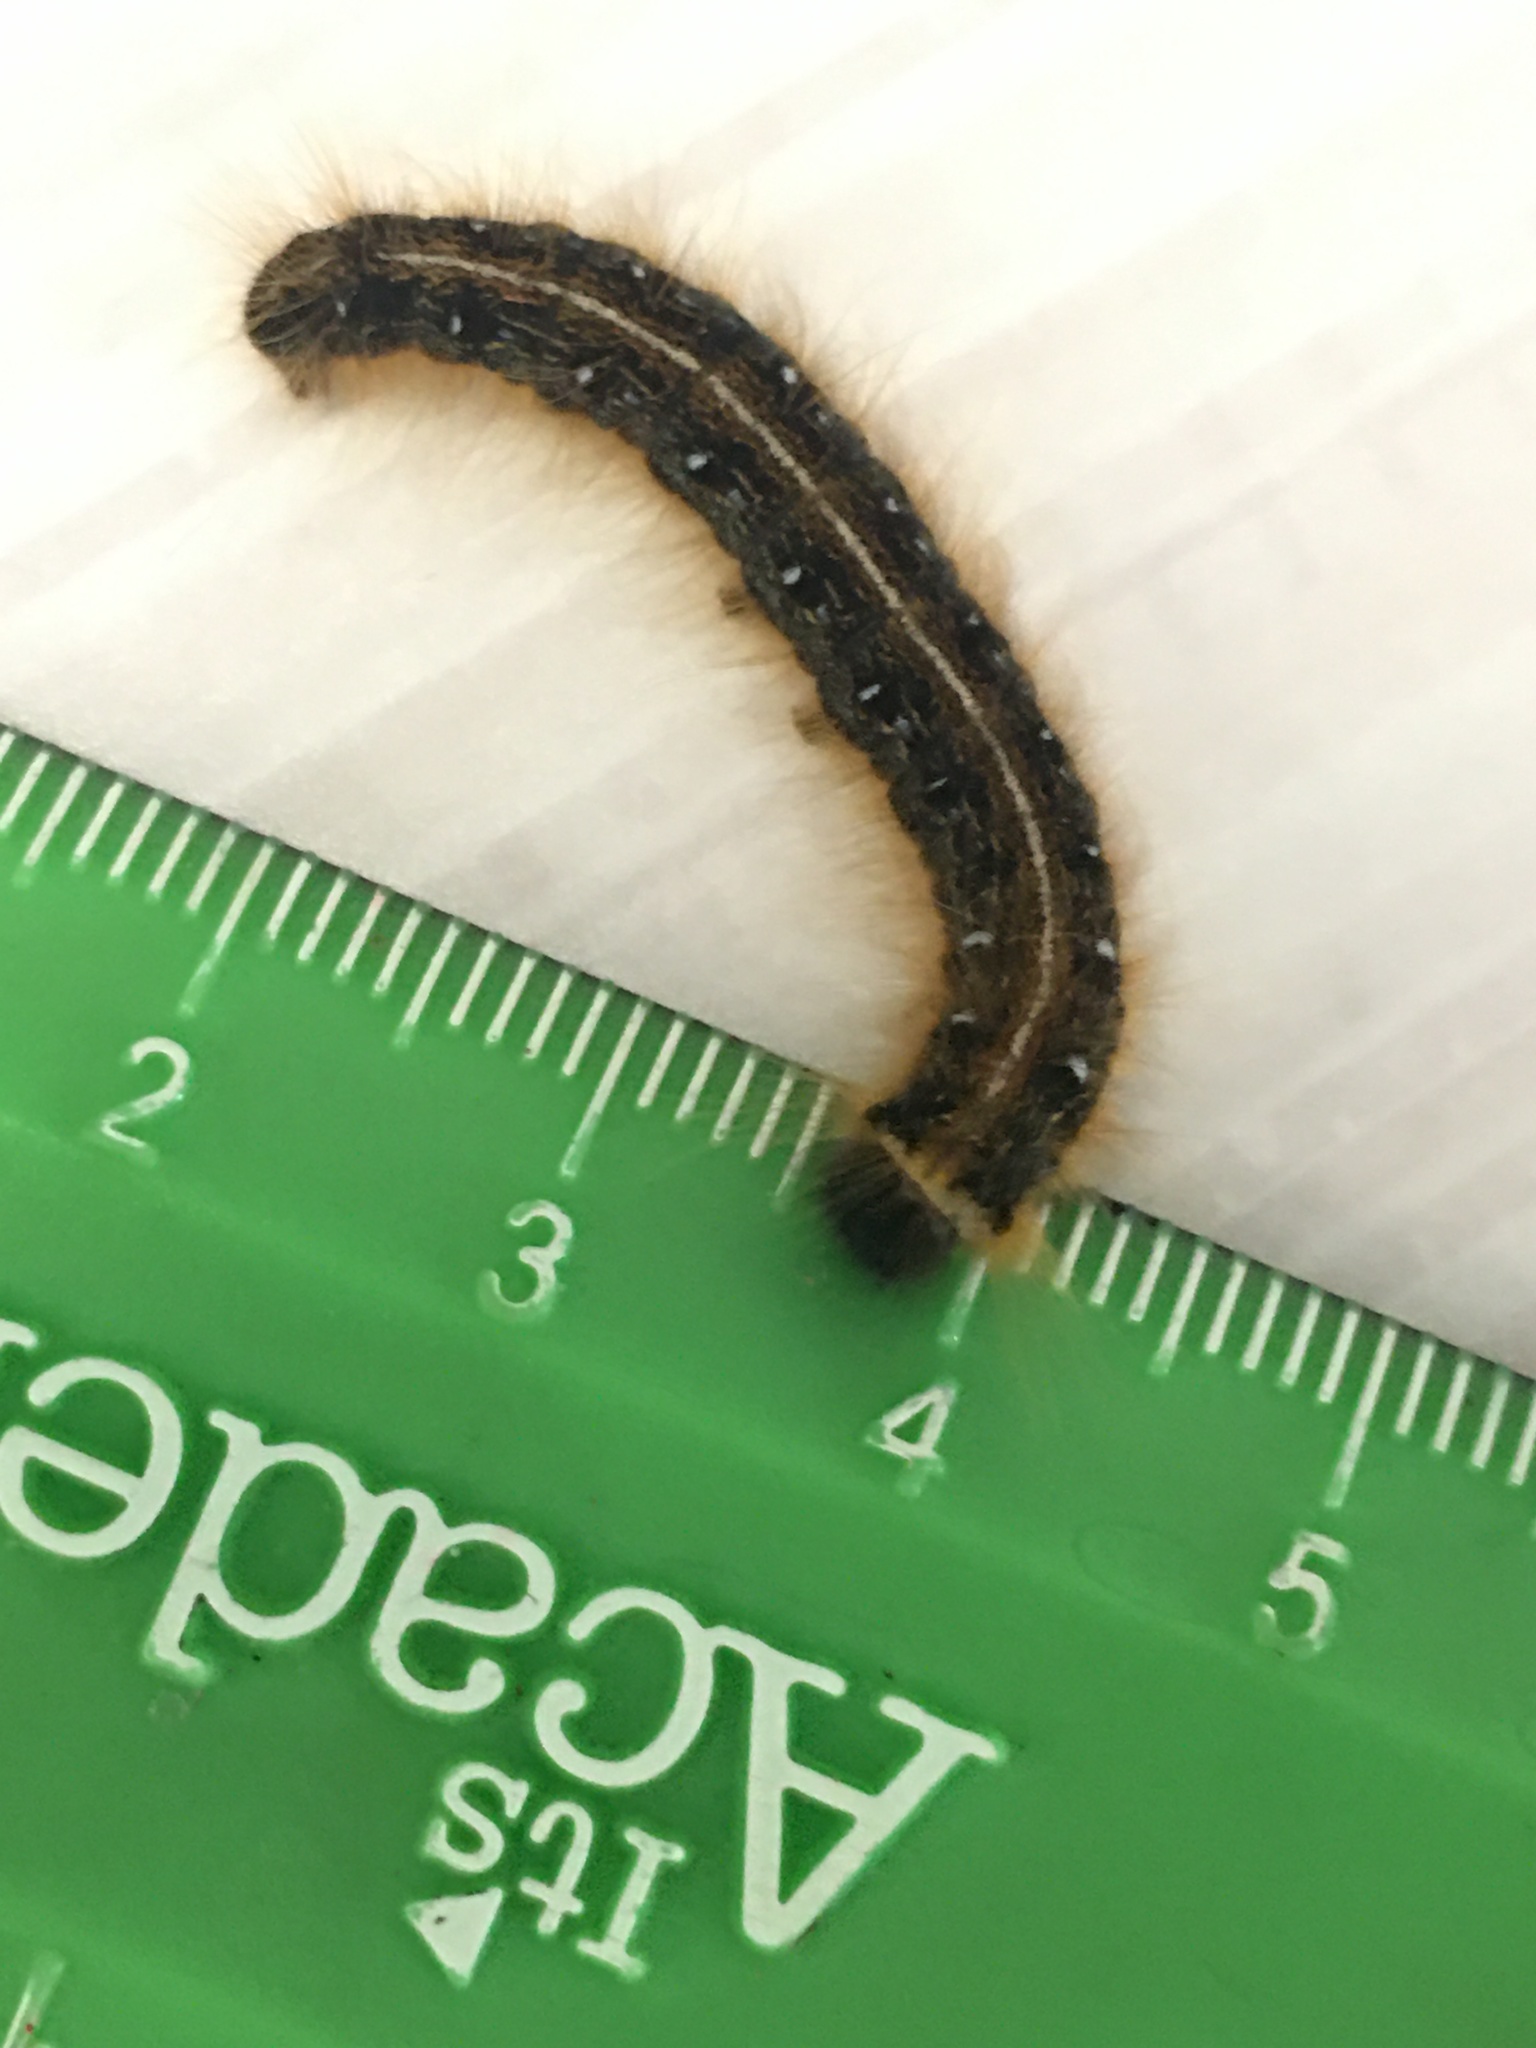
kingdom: Animalia
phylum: Arthropoda
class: Insecta
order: Lepidoptera
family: Lasiocampidae
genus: Malacosoma
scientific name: Malacosoma americana
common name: Eastern tent caterpillar moth
